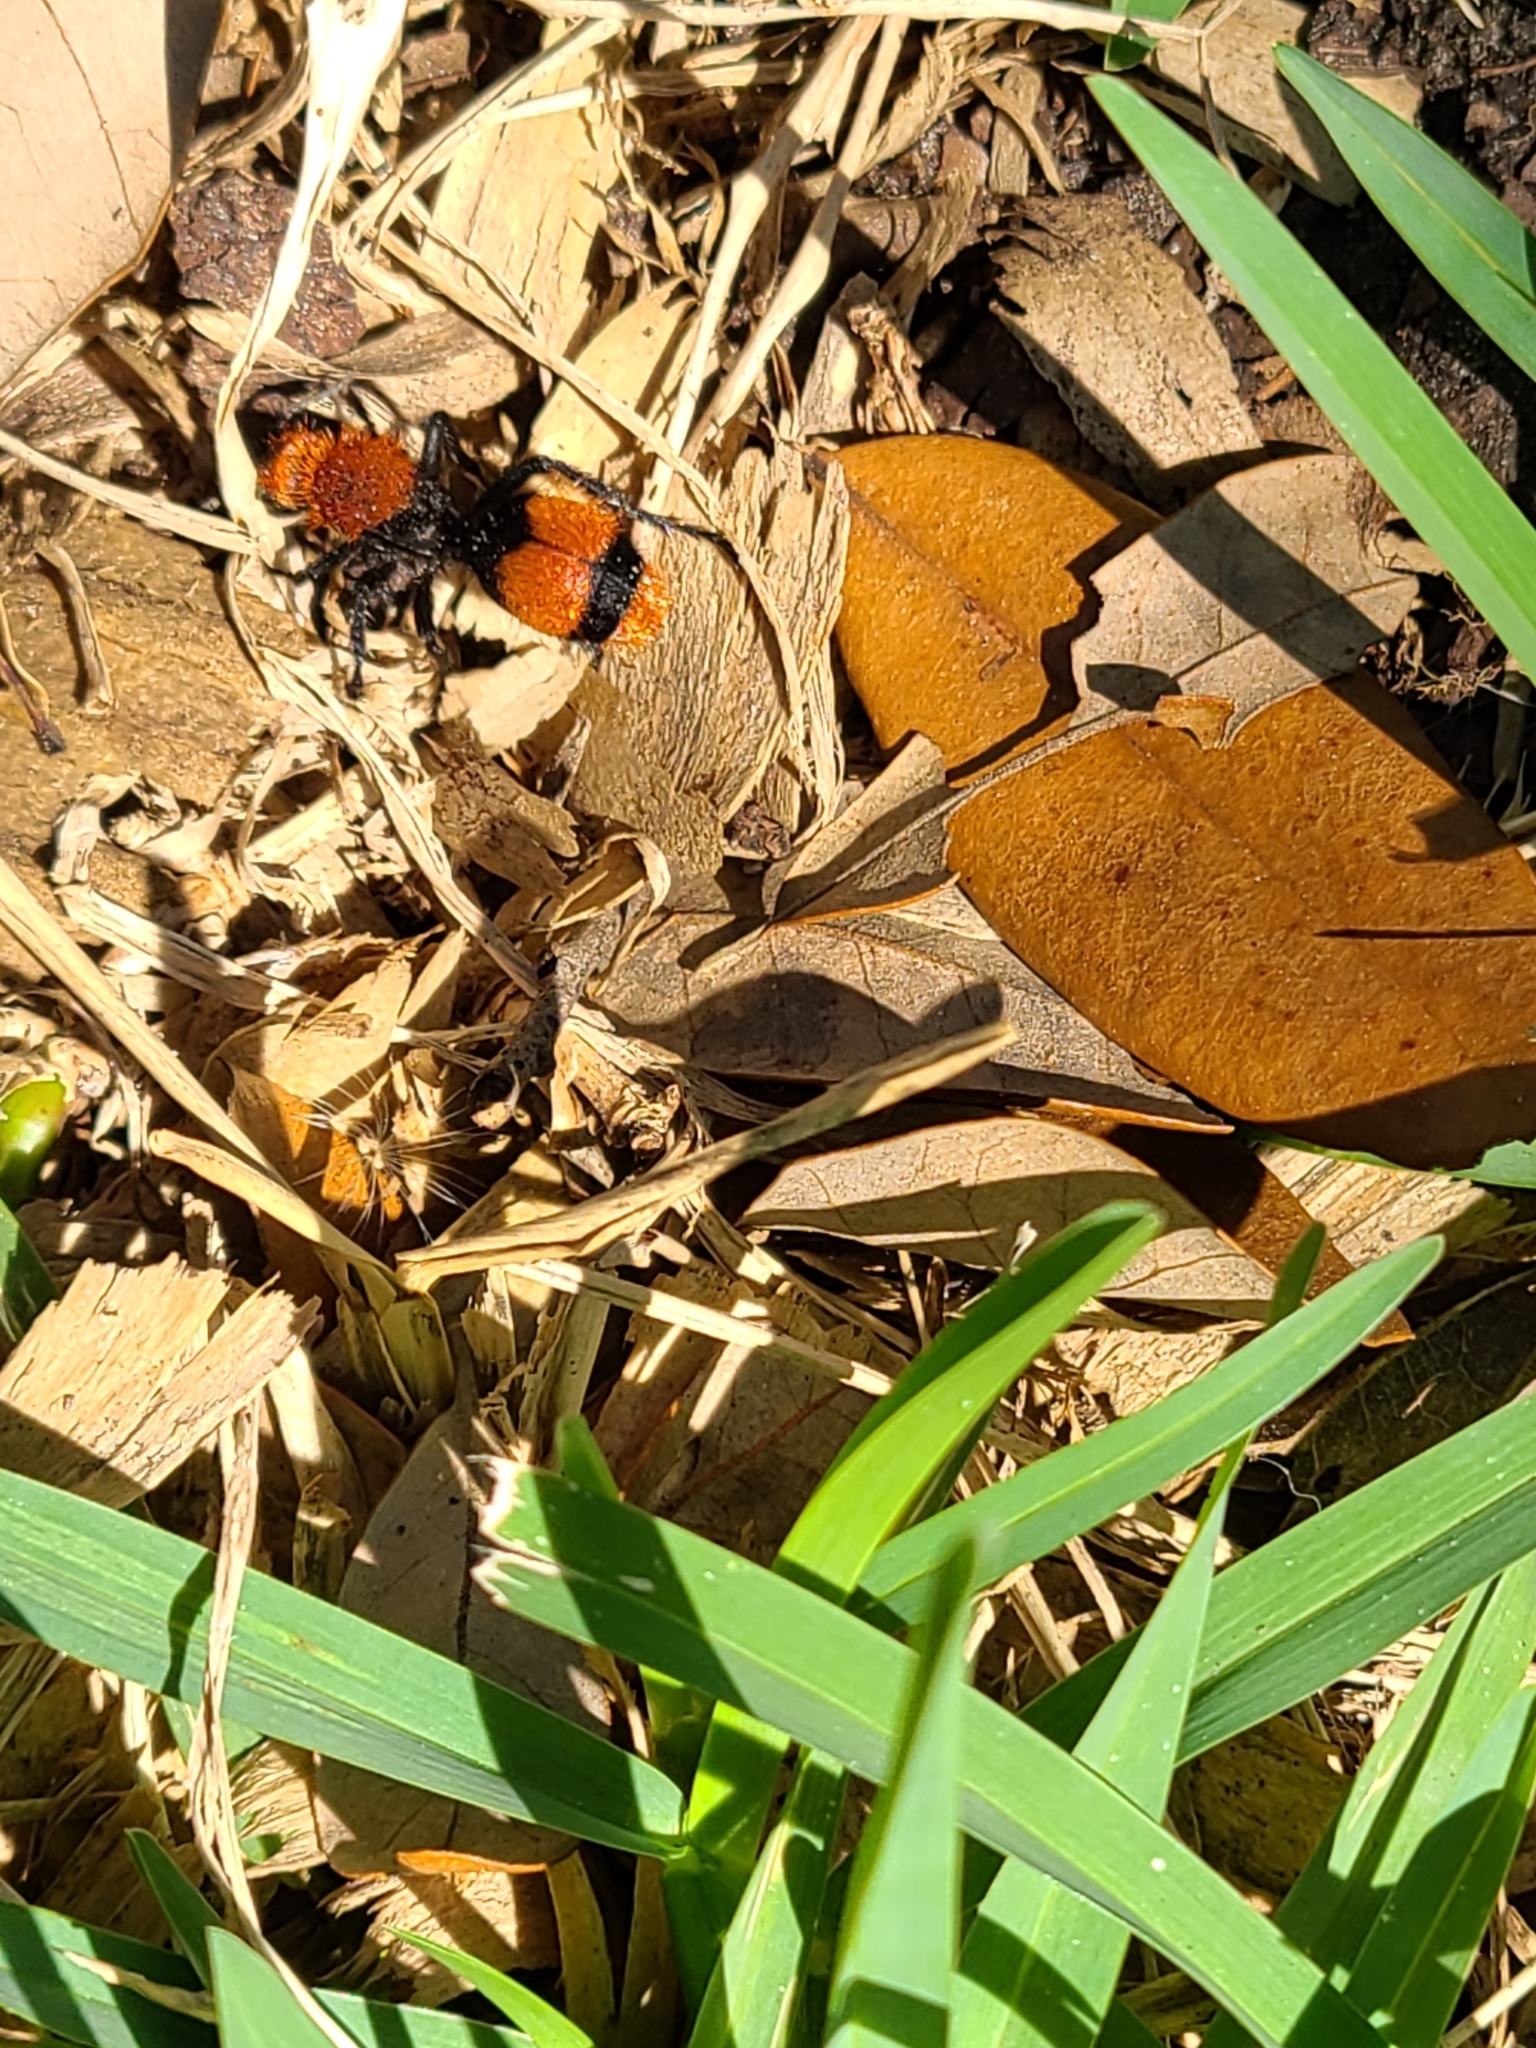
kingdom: Animalia
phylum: Arthropoda
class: Insecta
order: Hymenoptera
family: Mutillidae
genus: Dasymutilla
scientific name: Dasymutilla occidentalis
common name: Common eastern velvet ant
